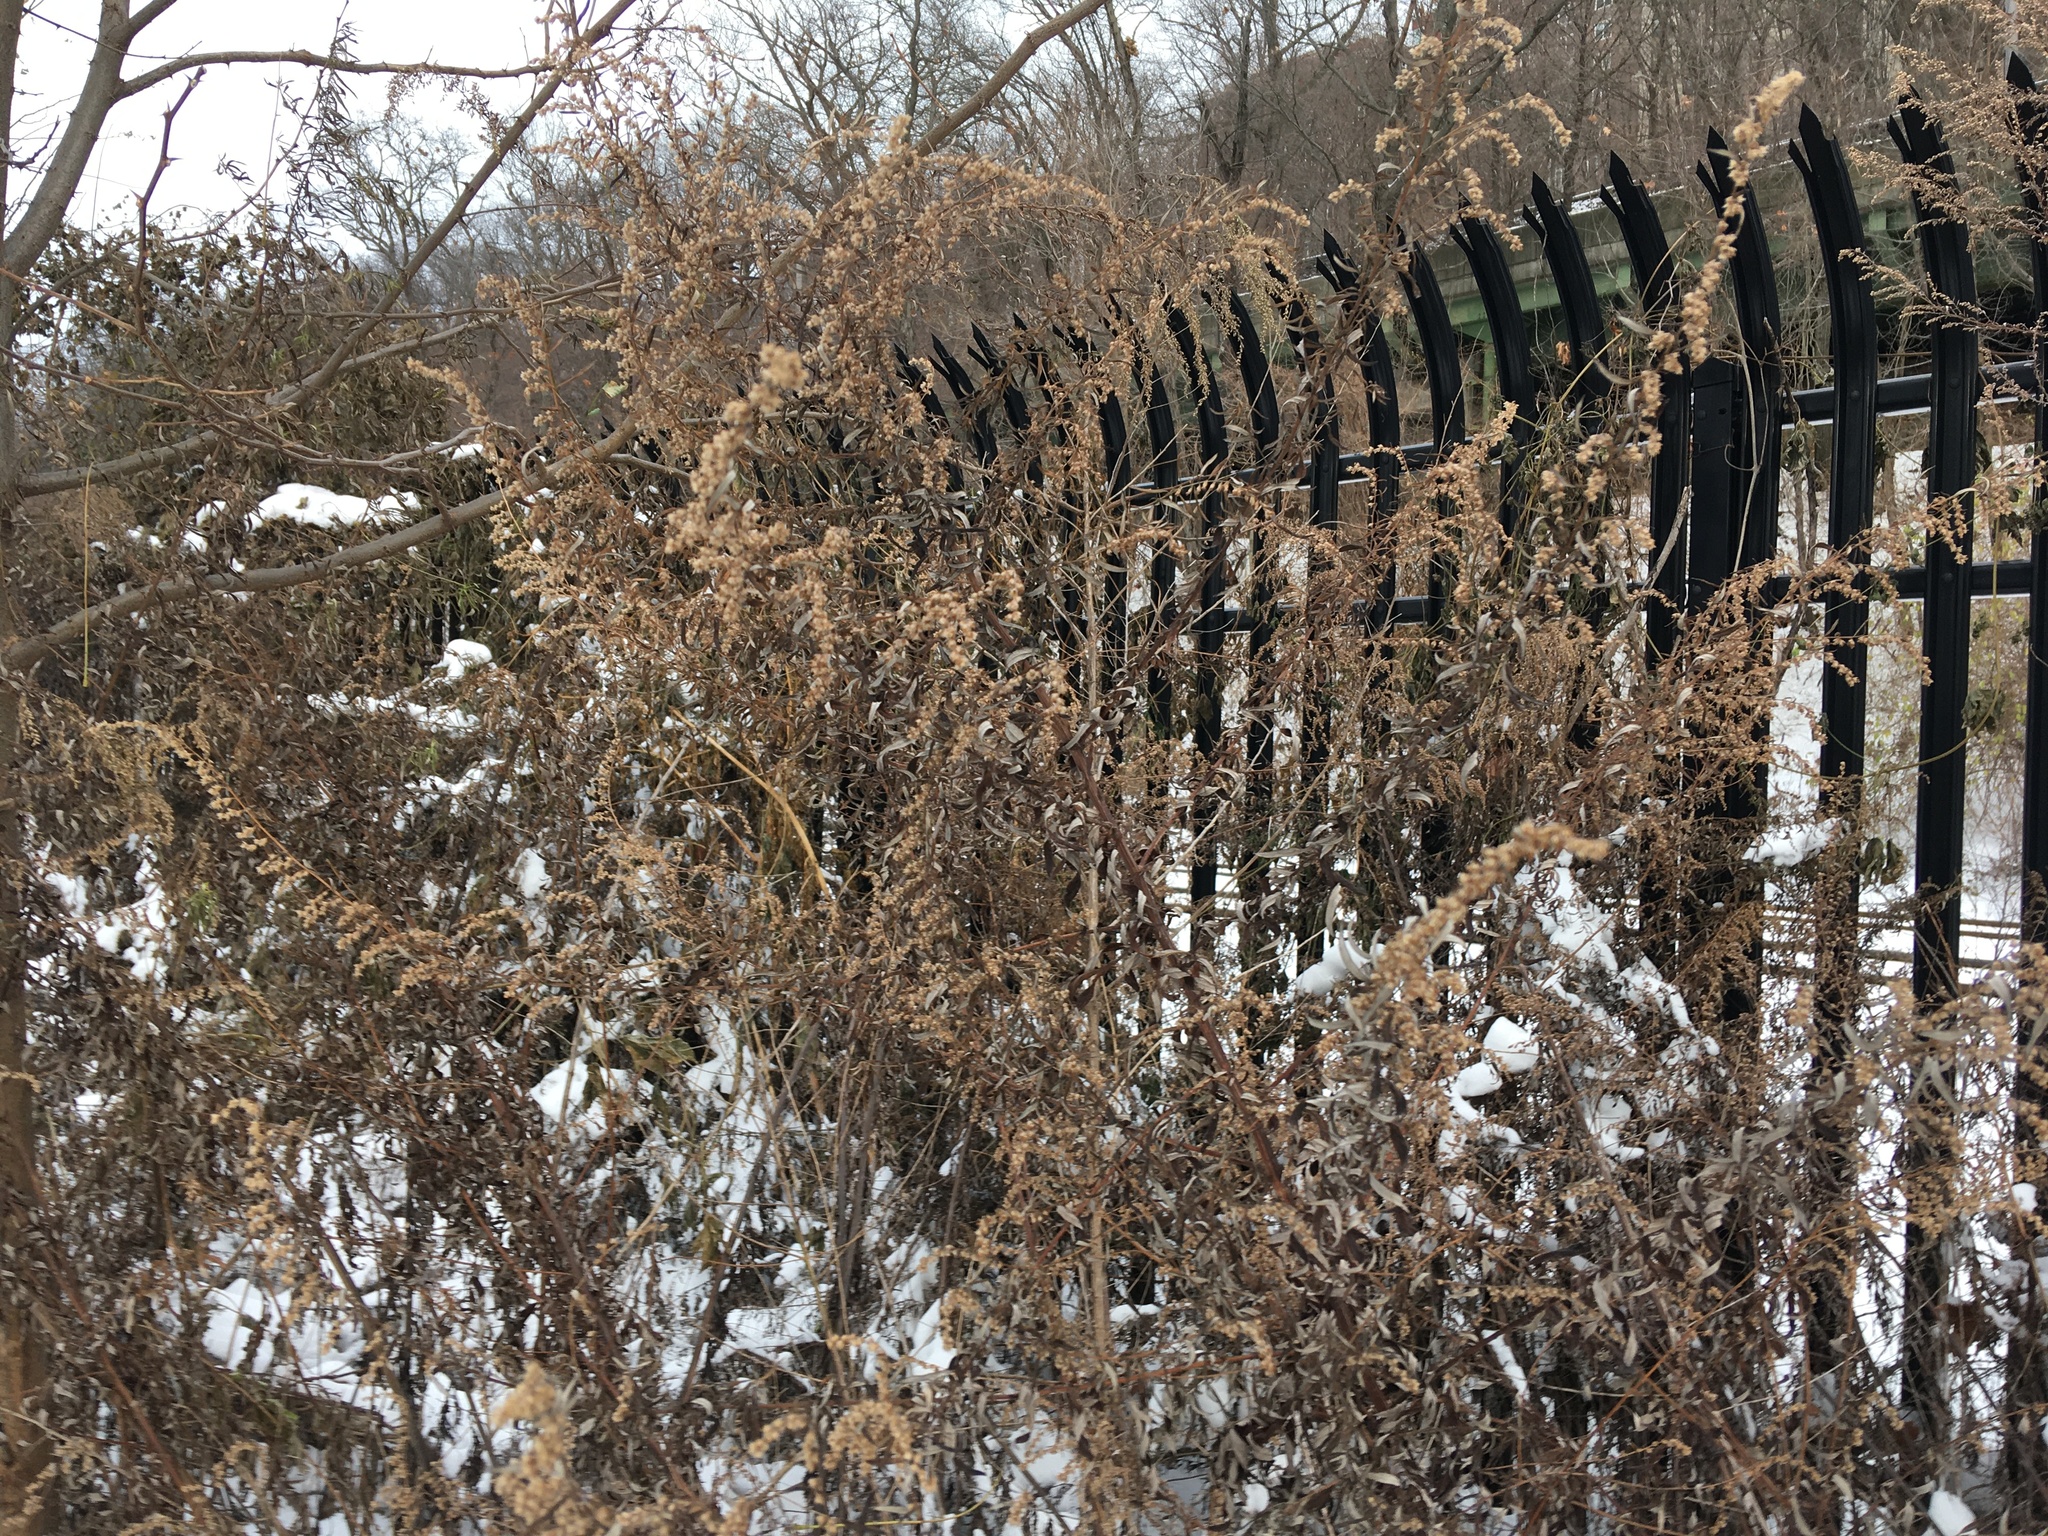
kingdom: Plantae
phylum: Tracheophyta
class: Magnoliopsida
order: Asterales
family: Asteraceae
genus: Artemisia
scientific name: Artemisia vulgaris
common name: Mugwort
